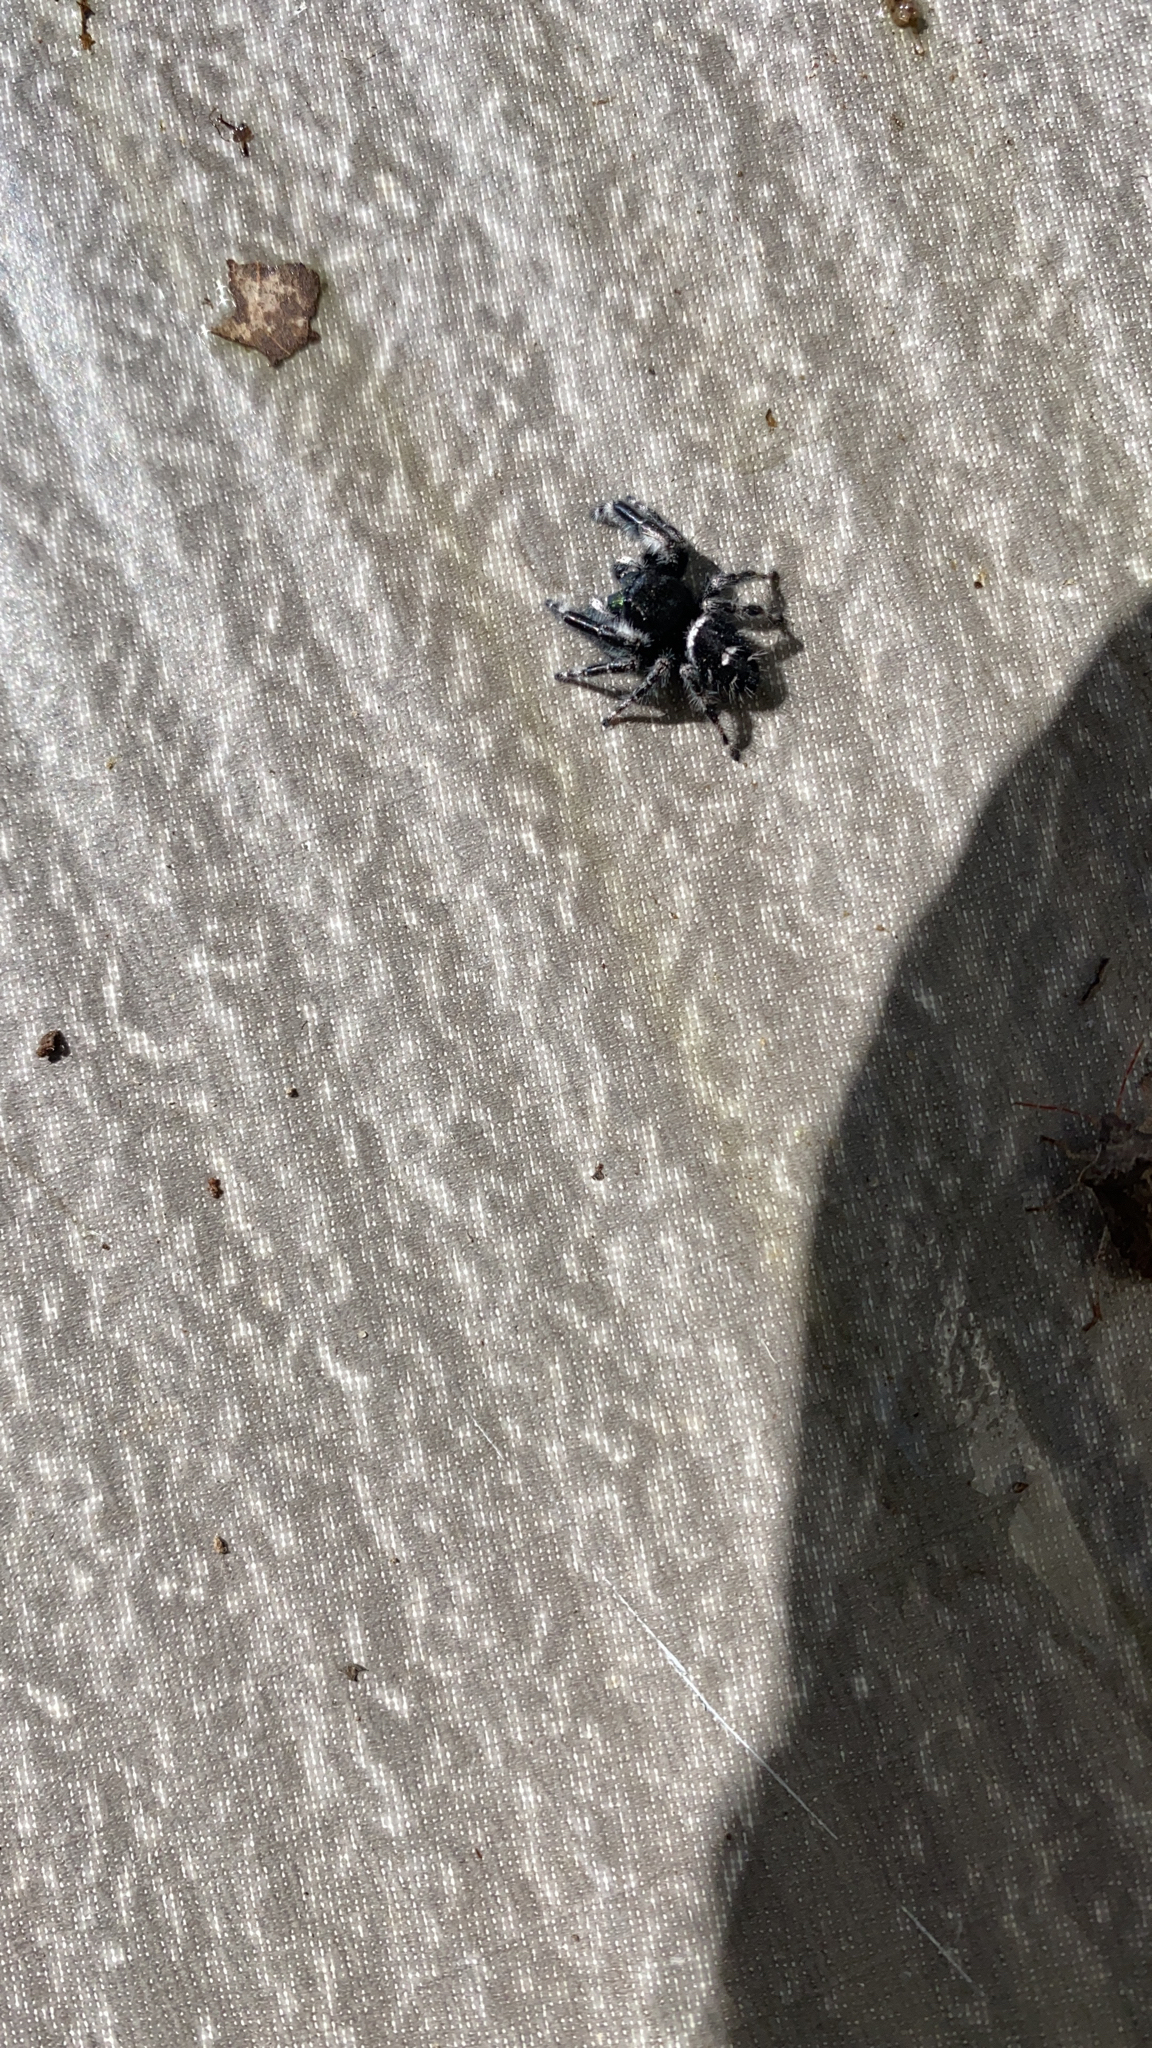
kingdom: Animalia
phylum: Arthropoda
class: Arachnida
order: Araneae
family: Salticidae
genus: Phidippus
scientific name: Phidippus audax
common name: Bold jumper
